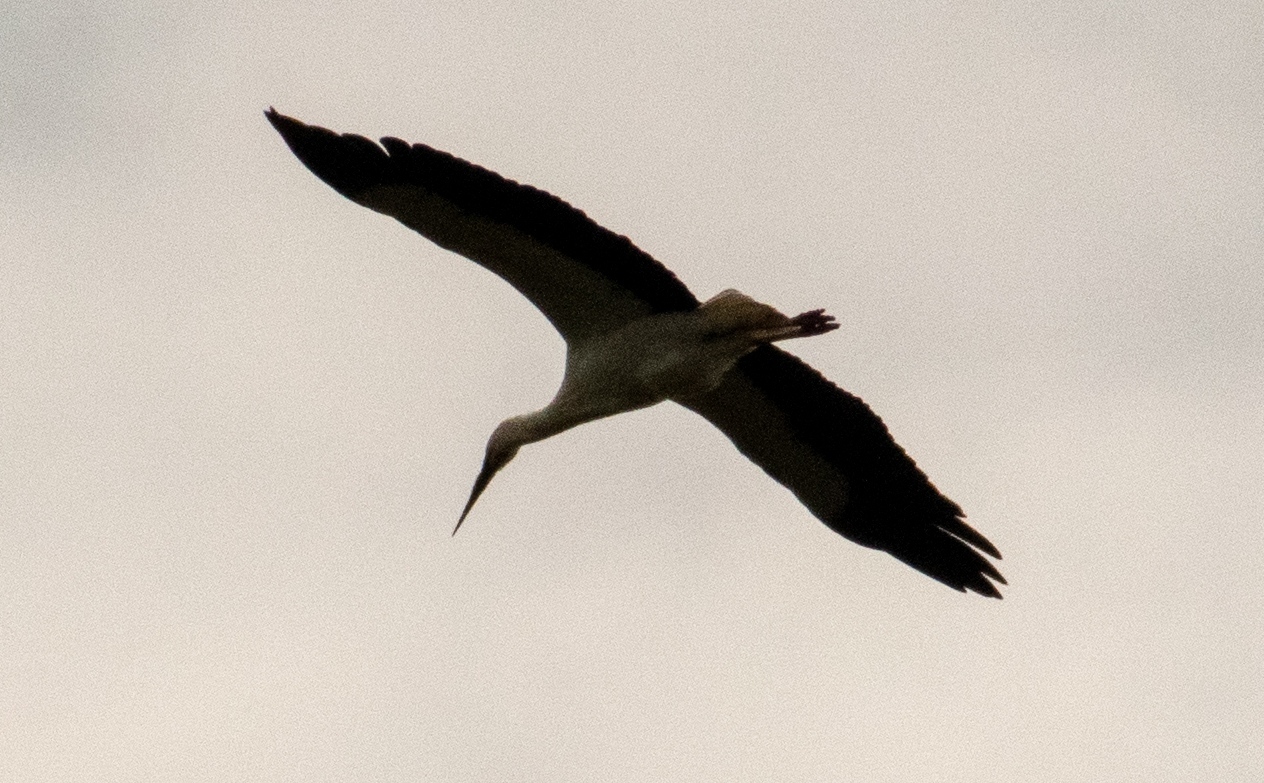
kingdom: Animalia
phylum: Chordata
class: Aves
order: Ciconiiformes
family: Ciconiidae
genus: Ciconia
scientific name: Ciconia ciconia
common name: White stork
